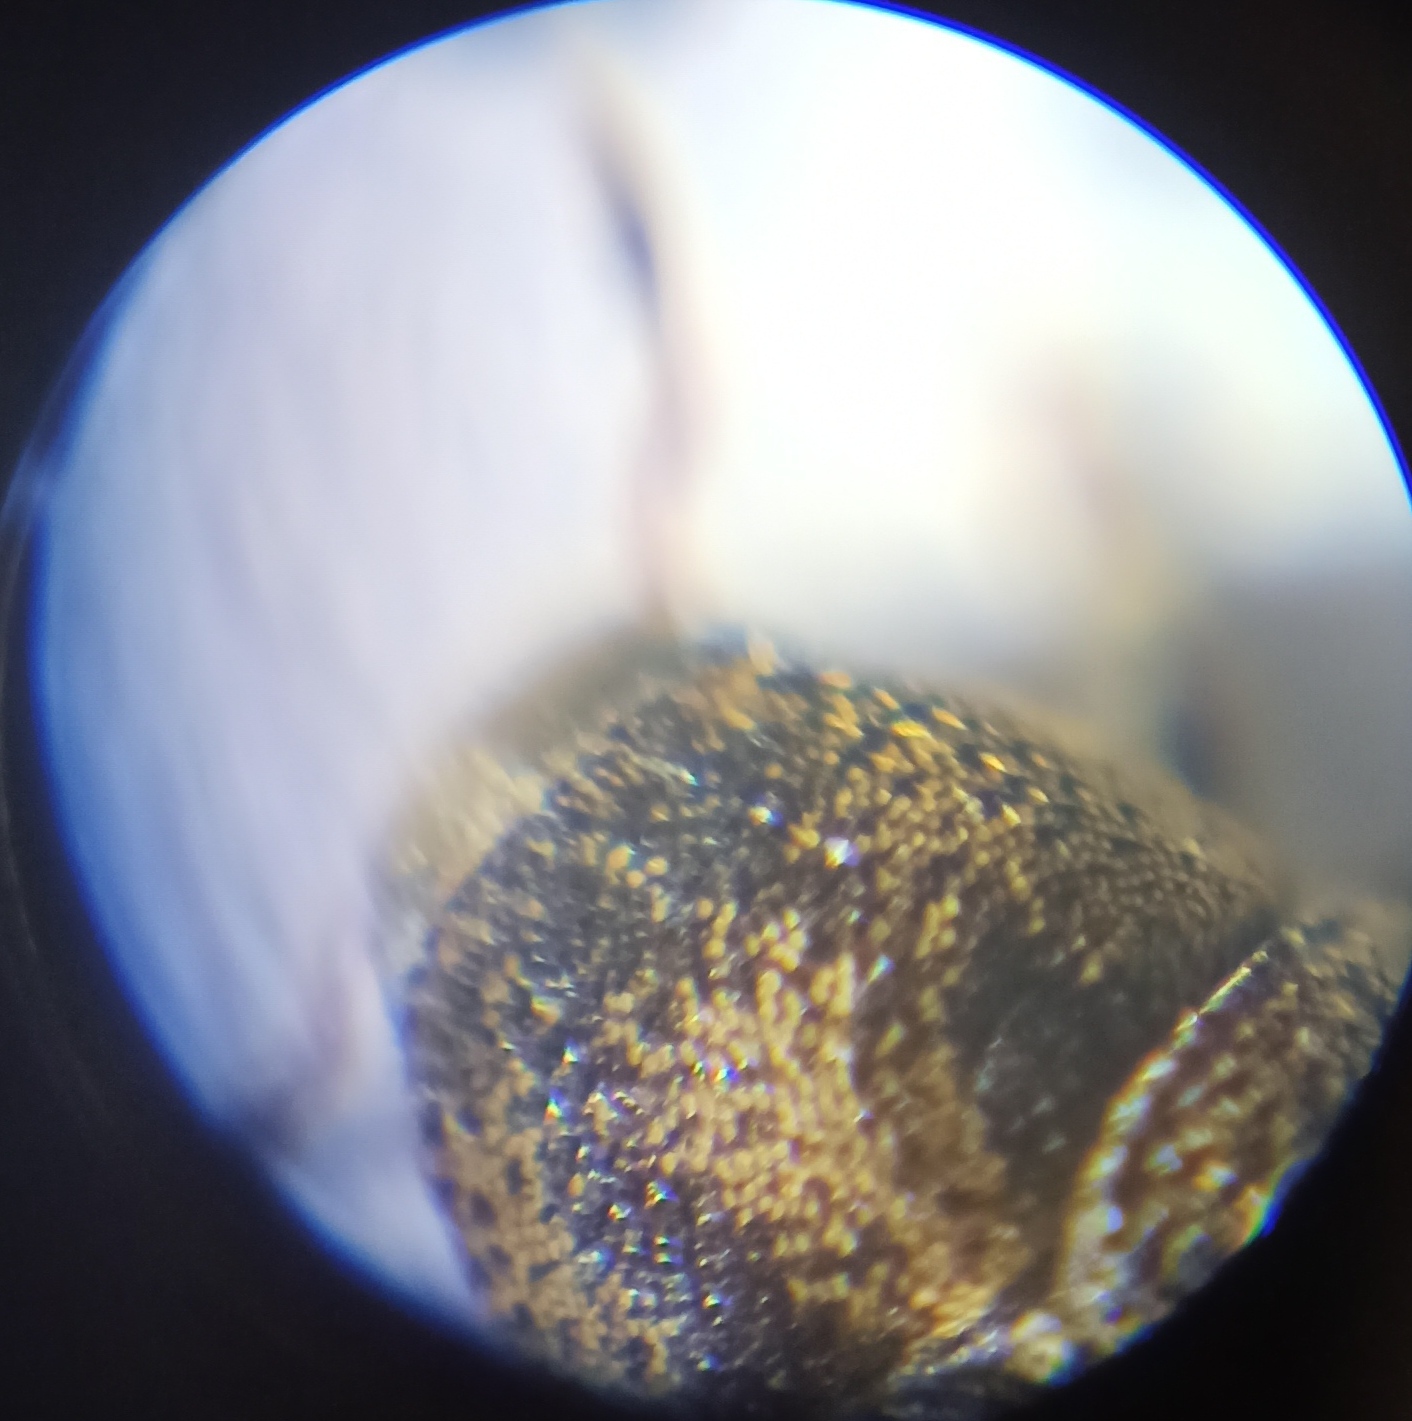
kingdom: Animalia
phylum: Arthropoda
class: Insecta
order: Coleoptera
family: Curculionidae
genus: Hylesinus
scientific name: Hylesinus varius
